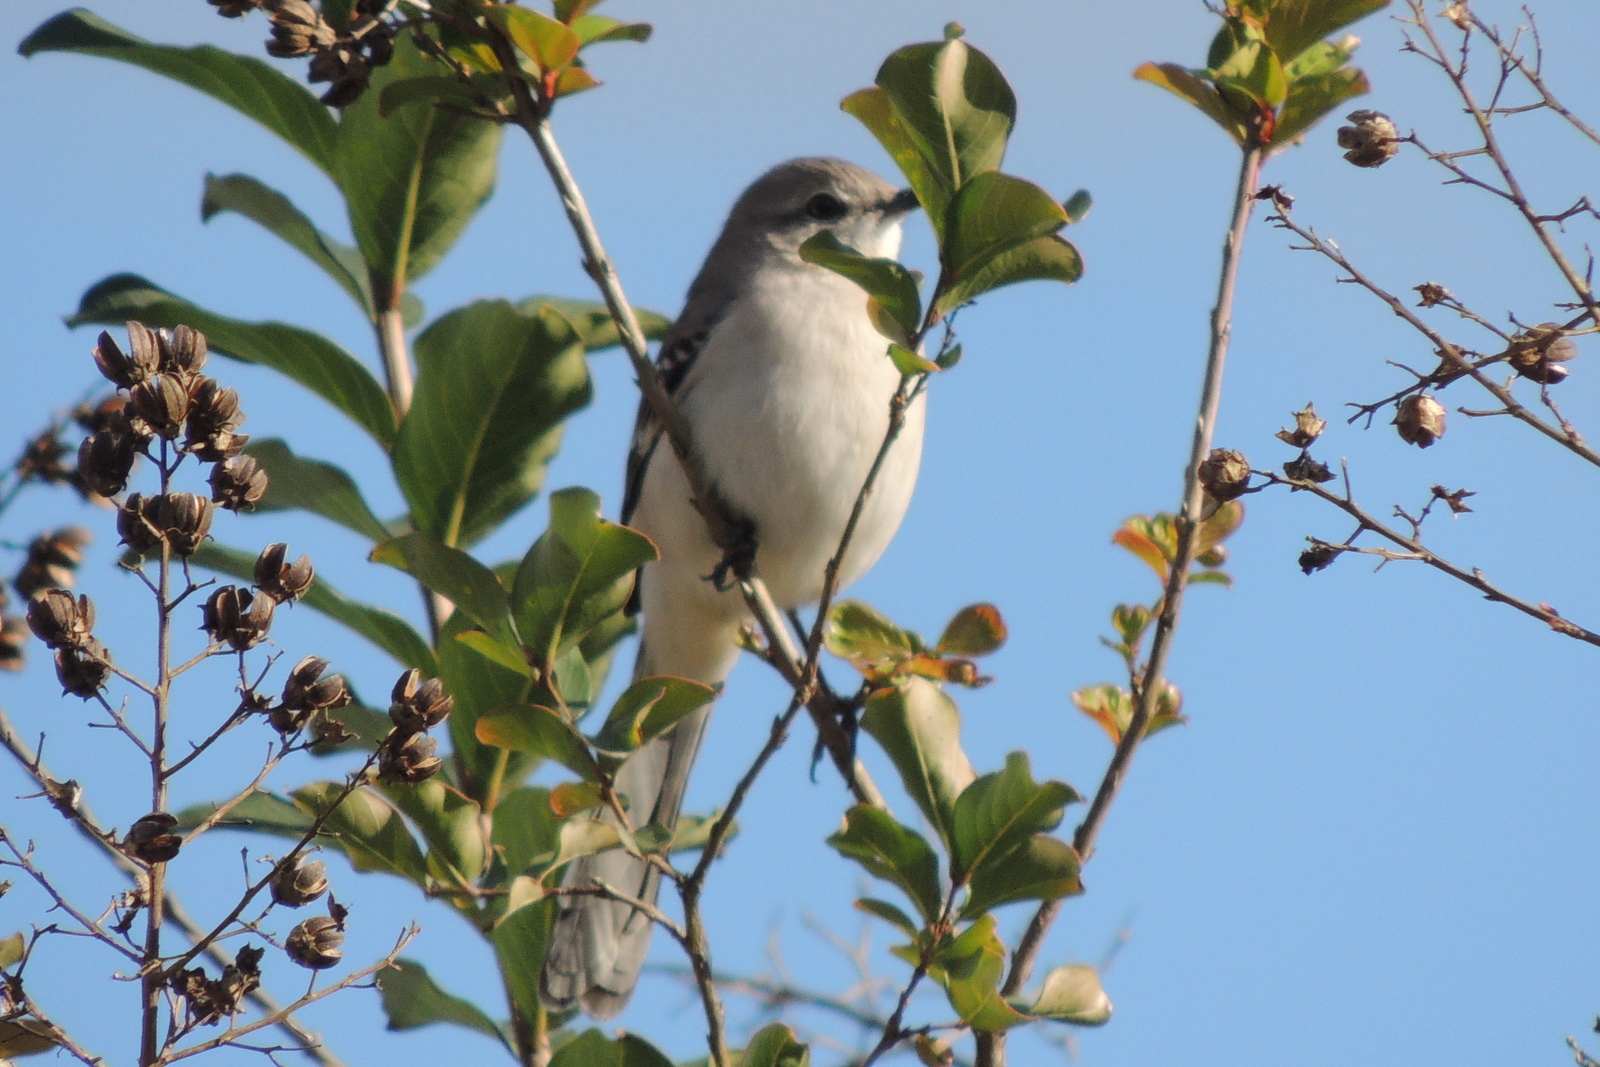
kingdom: Animalia
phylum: Chordata
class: Aves
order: Passeriformes
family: Mimidae
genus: Mimus
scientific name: Mimus polyglottos
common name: Northern mockingbird
